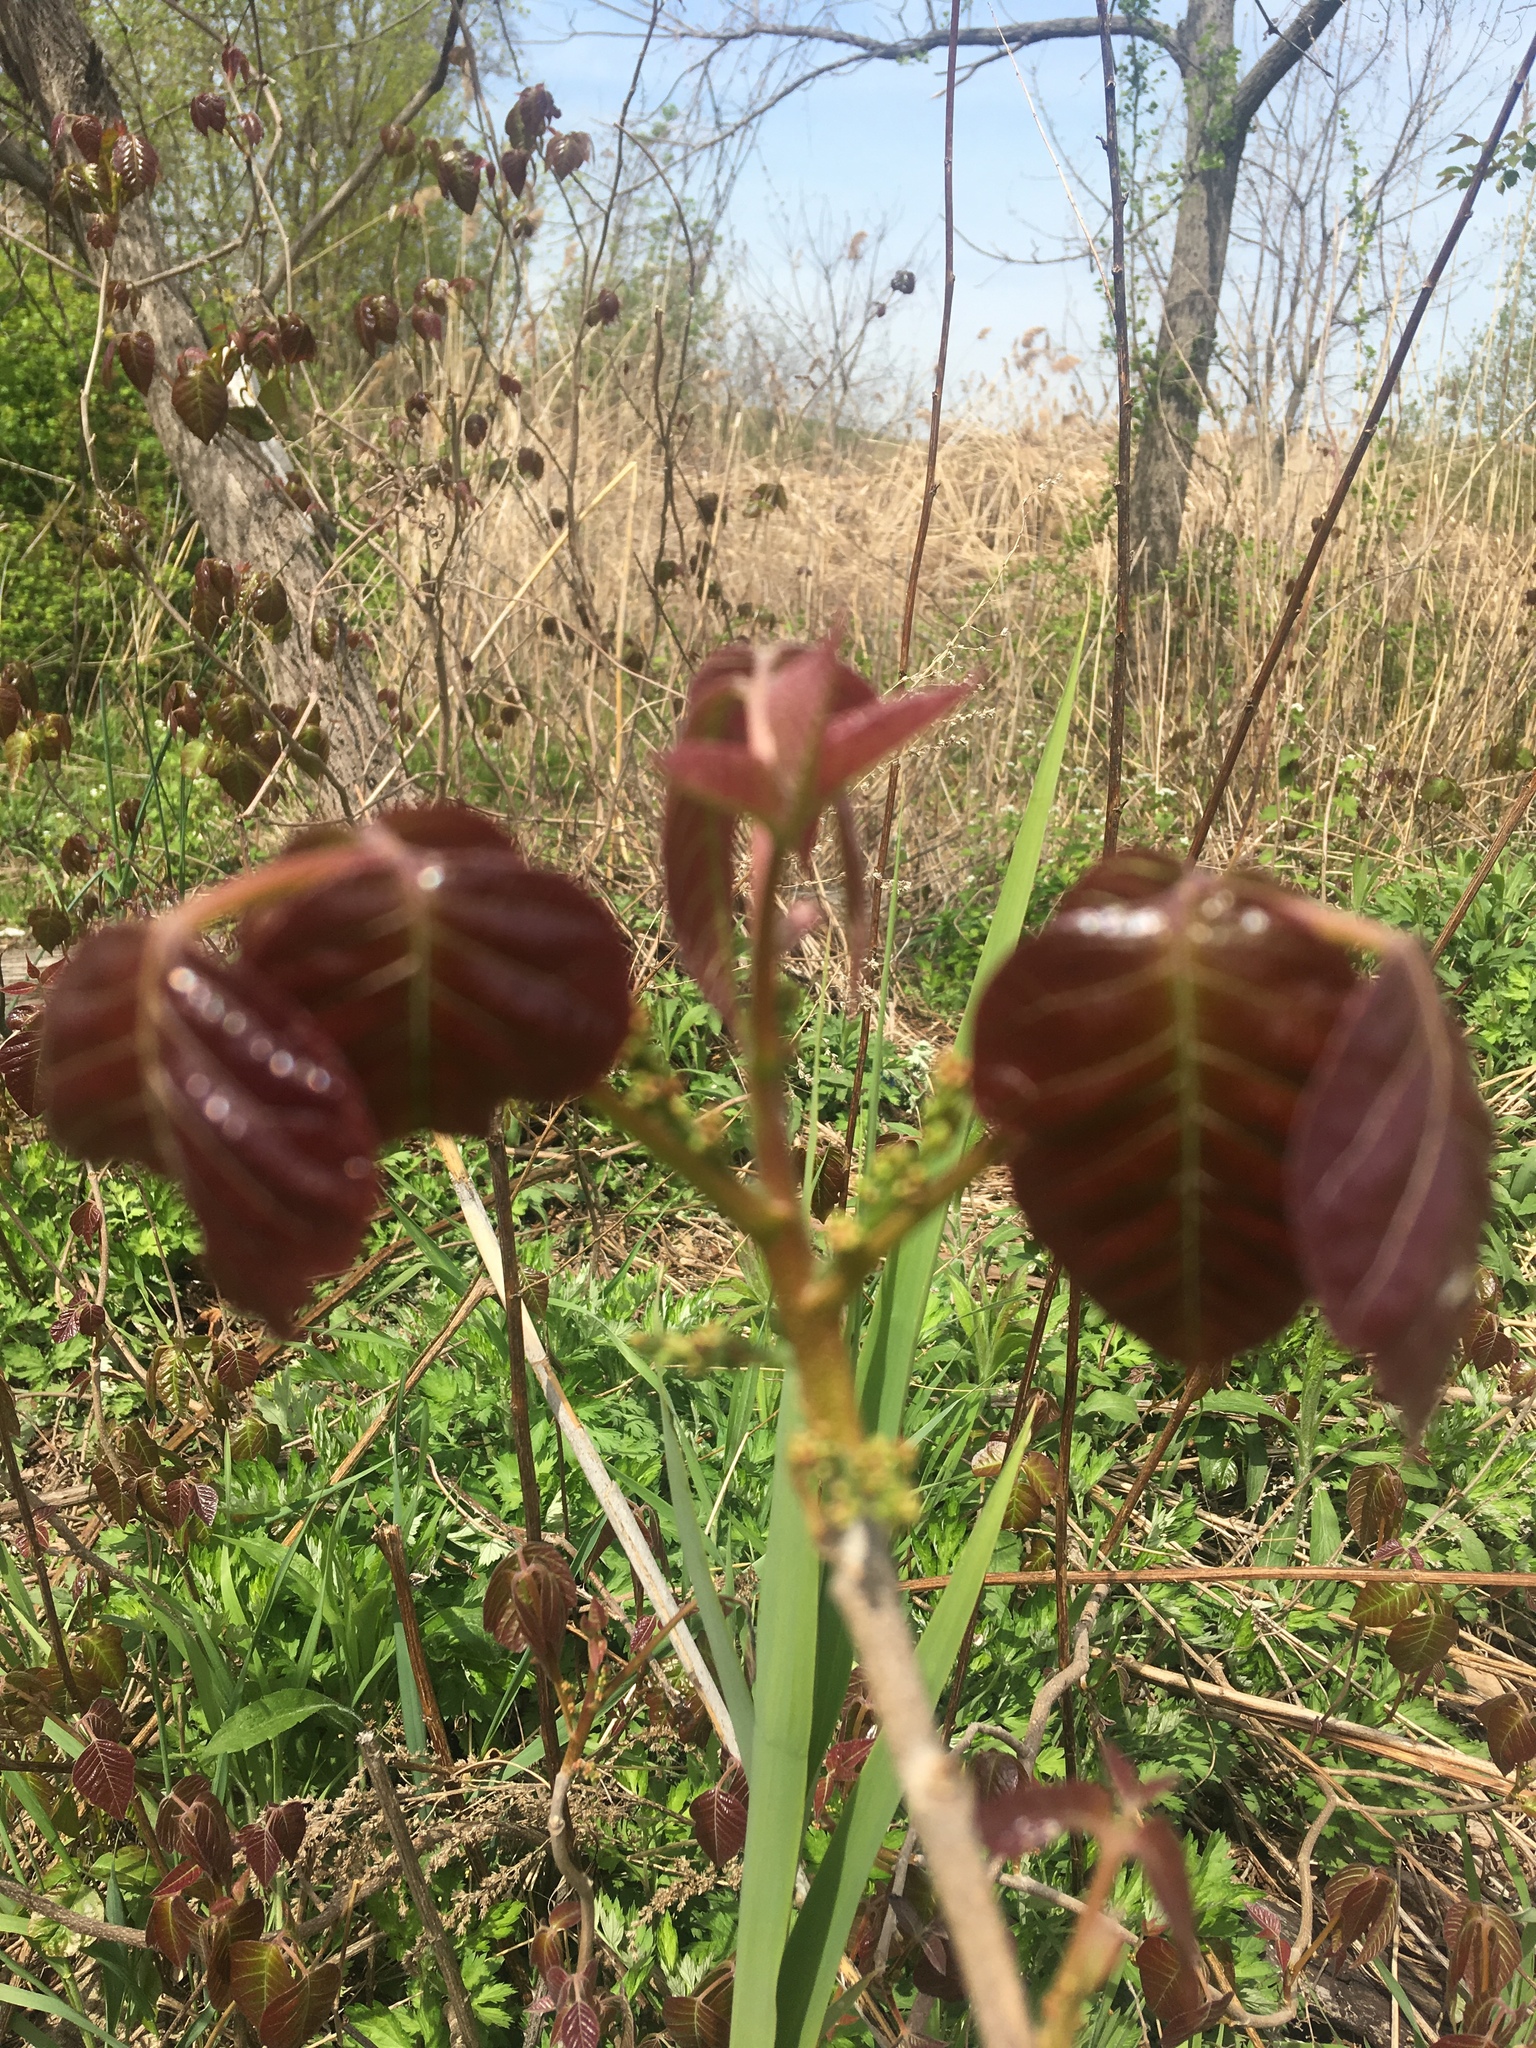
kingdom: Plantae
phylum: Tracheophyta
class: Magnoliopsida
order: Sapindales
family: Anacardiaceae
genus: Toxicodendron
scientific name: Toxicodendron radicans
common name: Poison ivy
